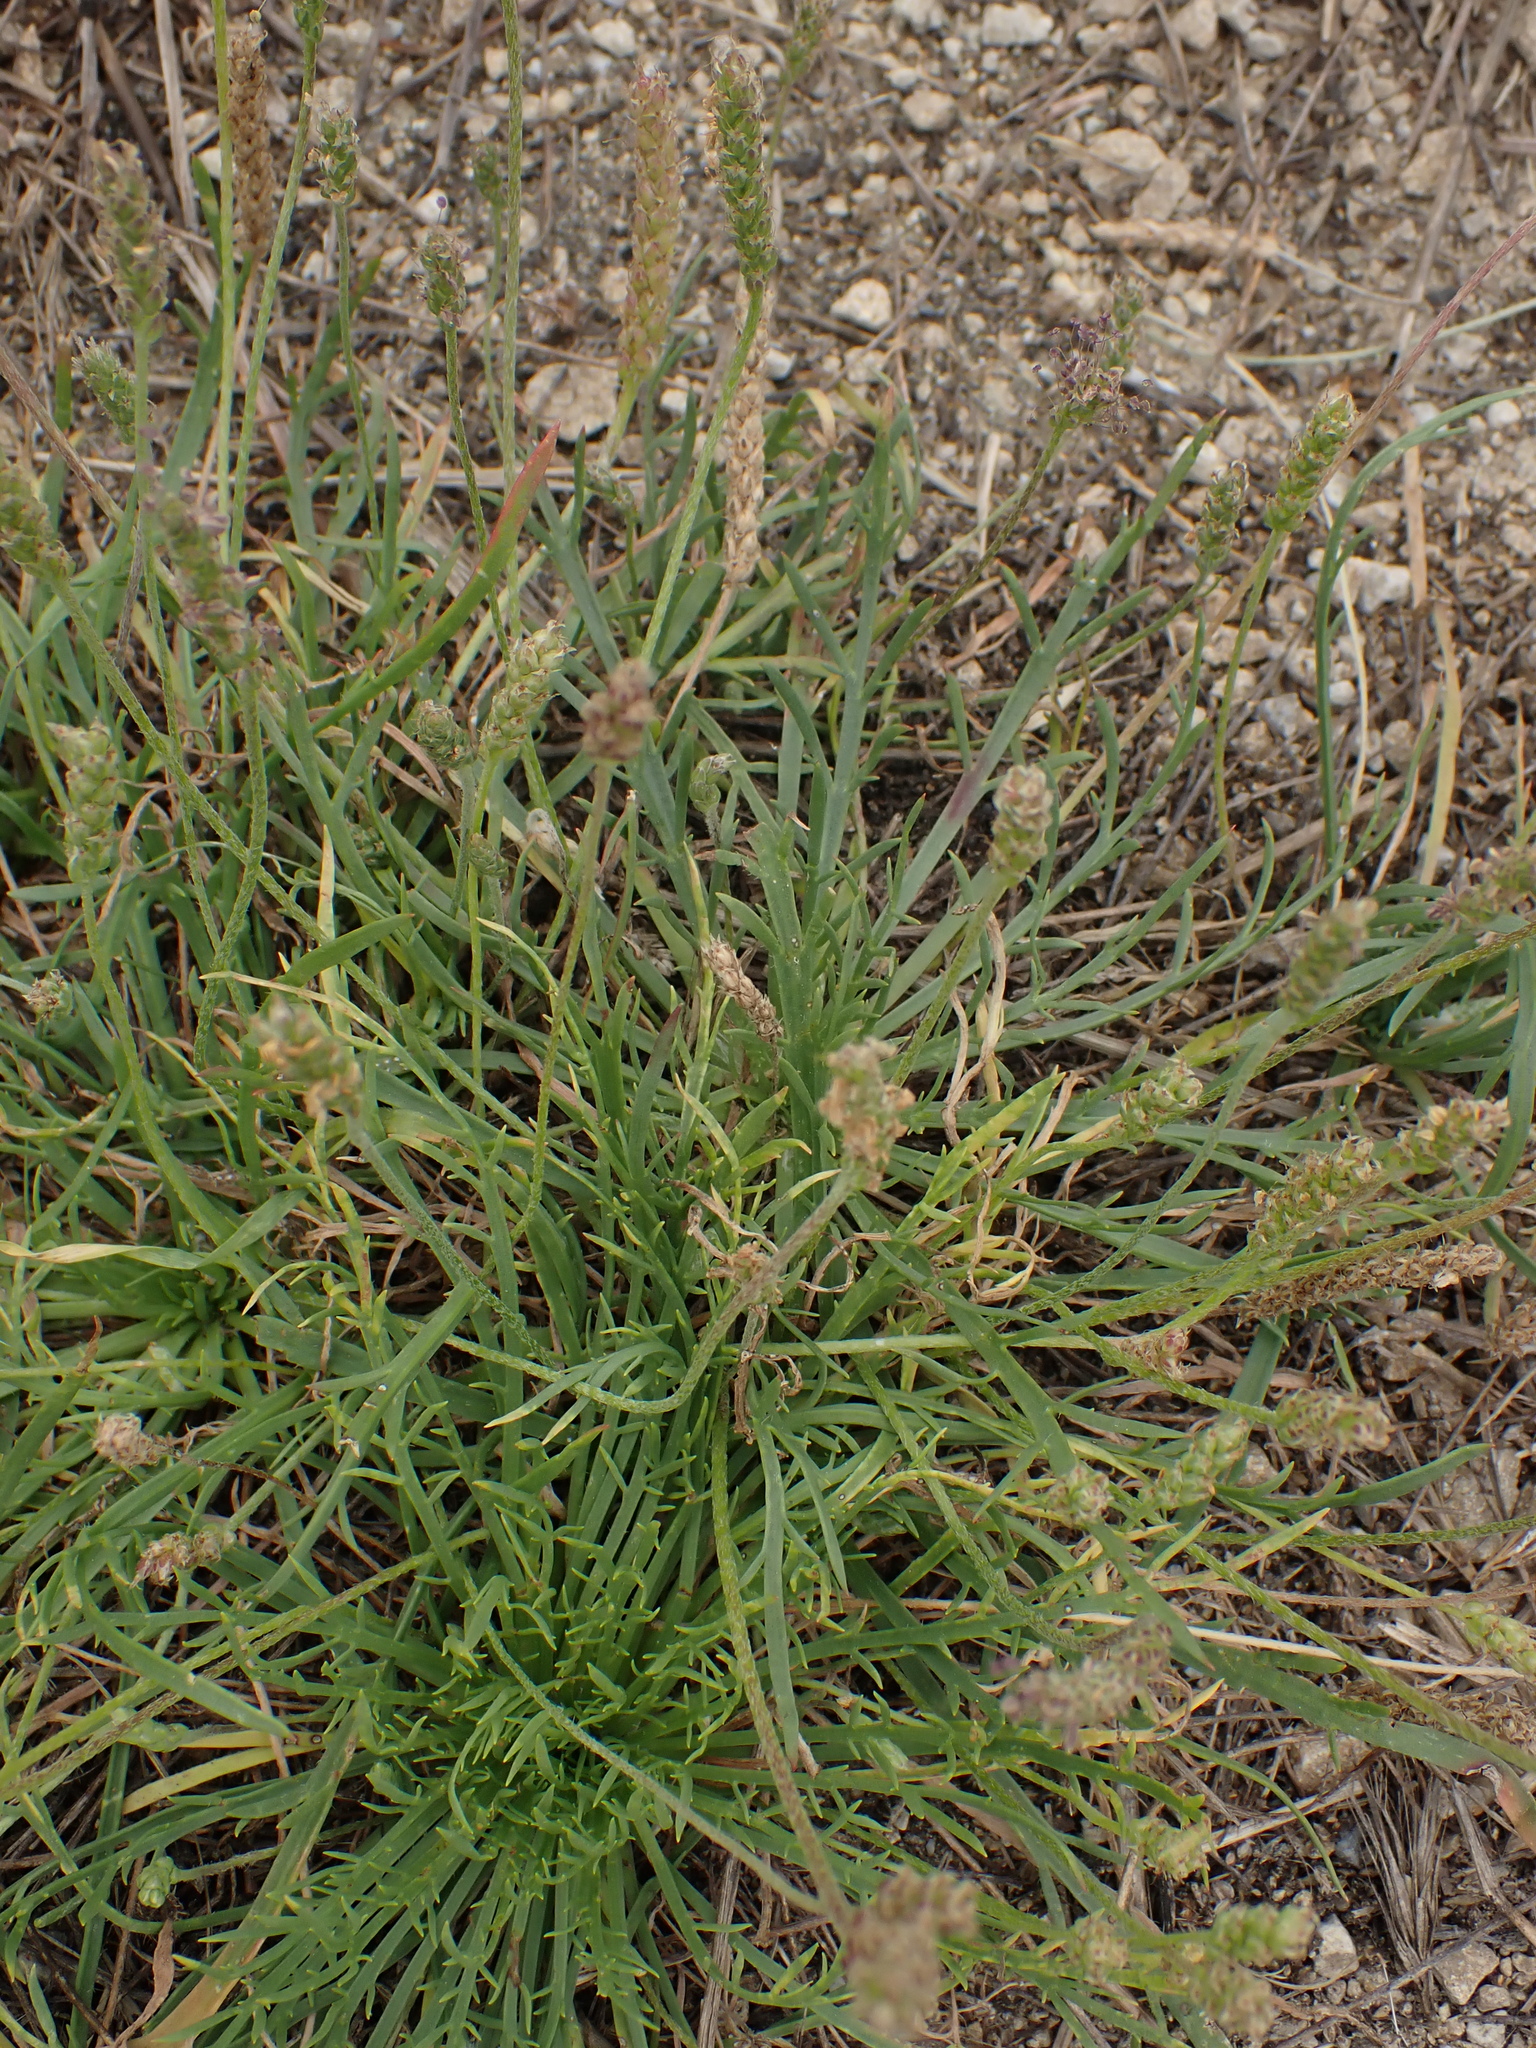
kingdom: Plantae
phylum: Tracheophyta
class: Magnoliopsida
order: Lamiales
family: Plantaginaceae
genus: Plantago
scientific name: Plantago coronopus
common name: Buck's-horn plantain
